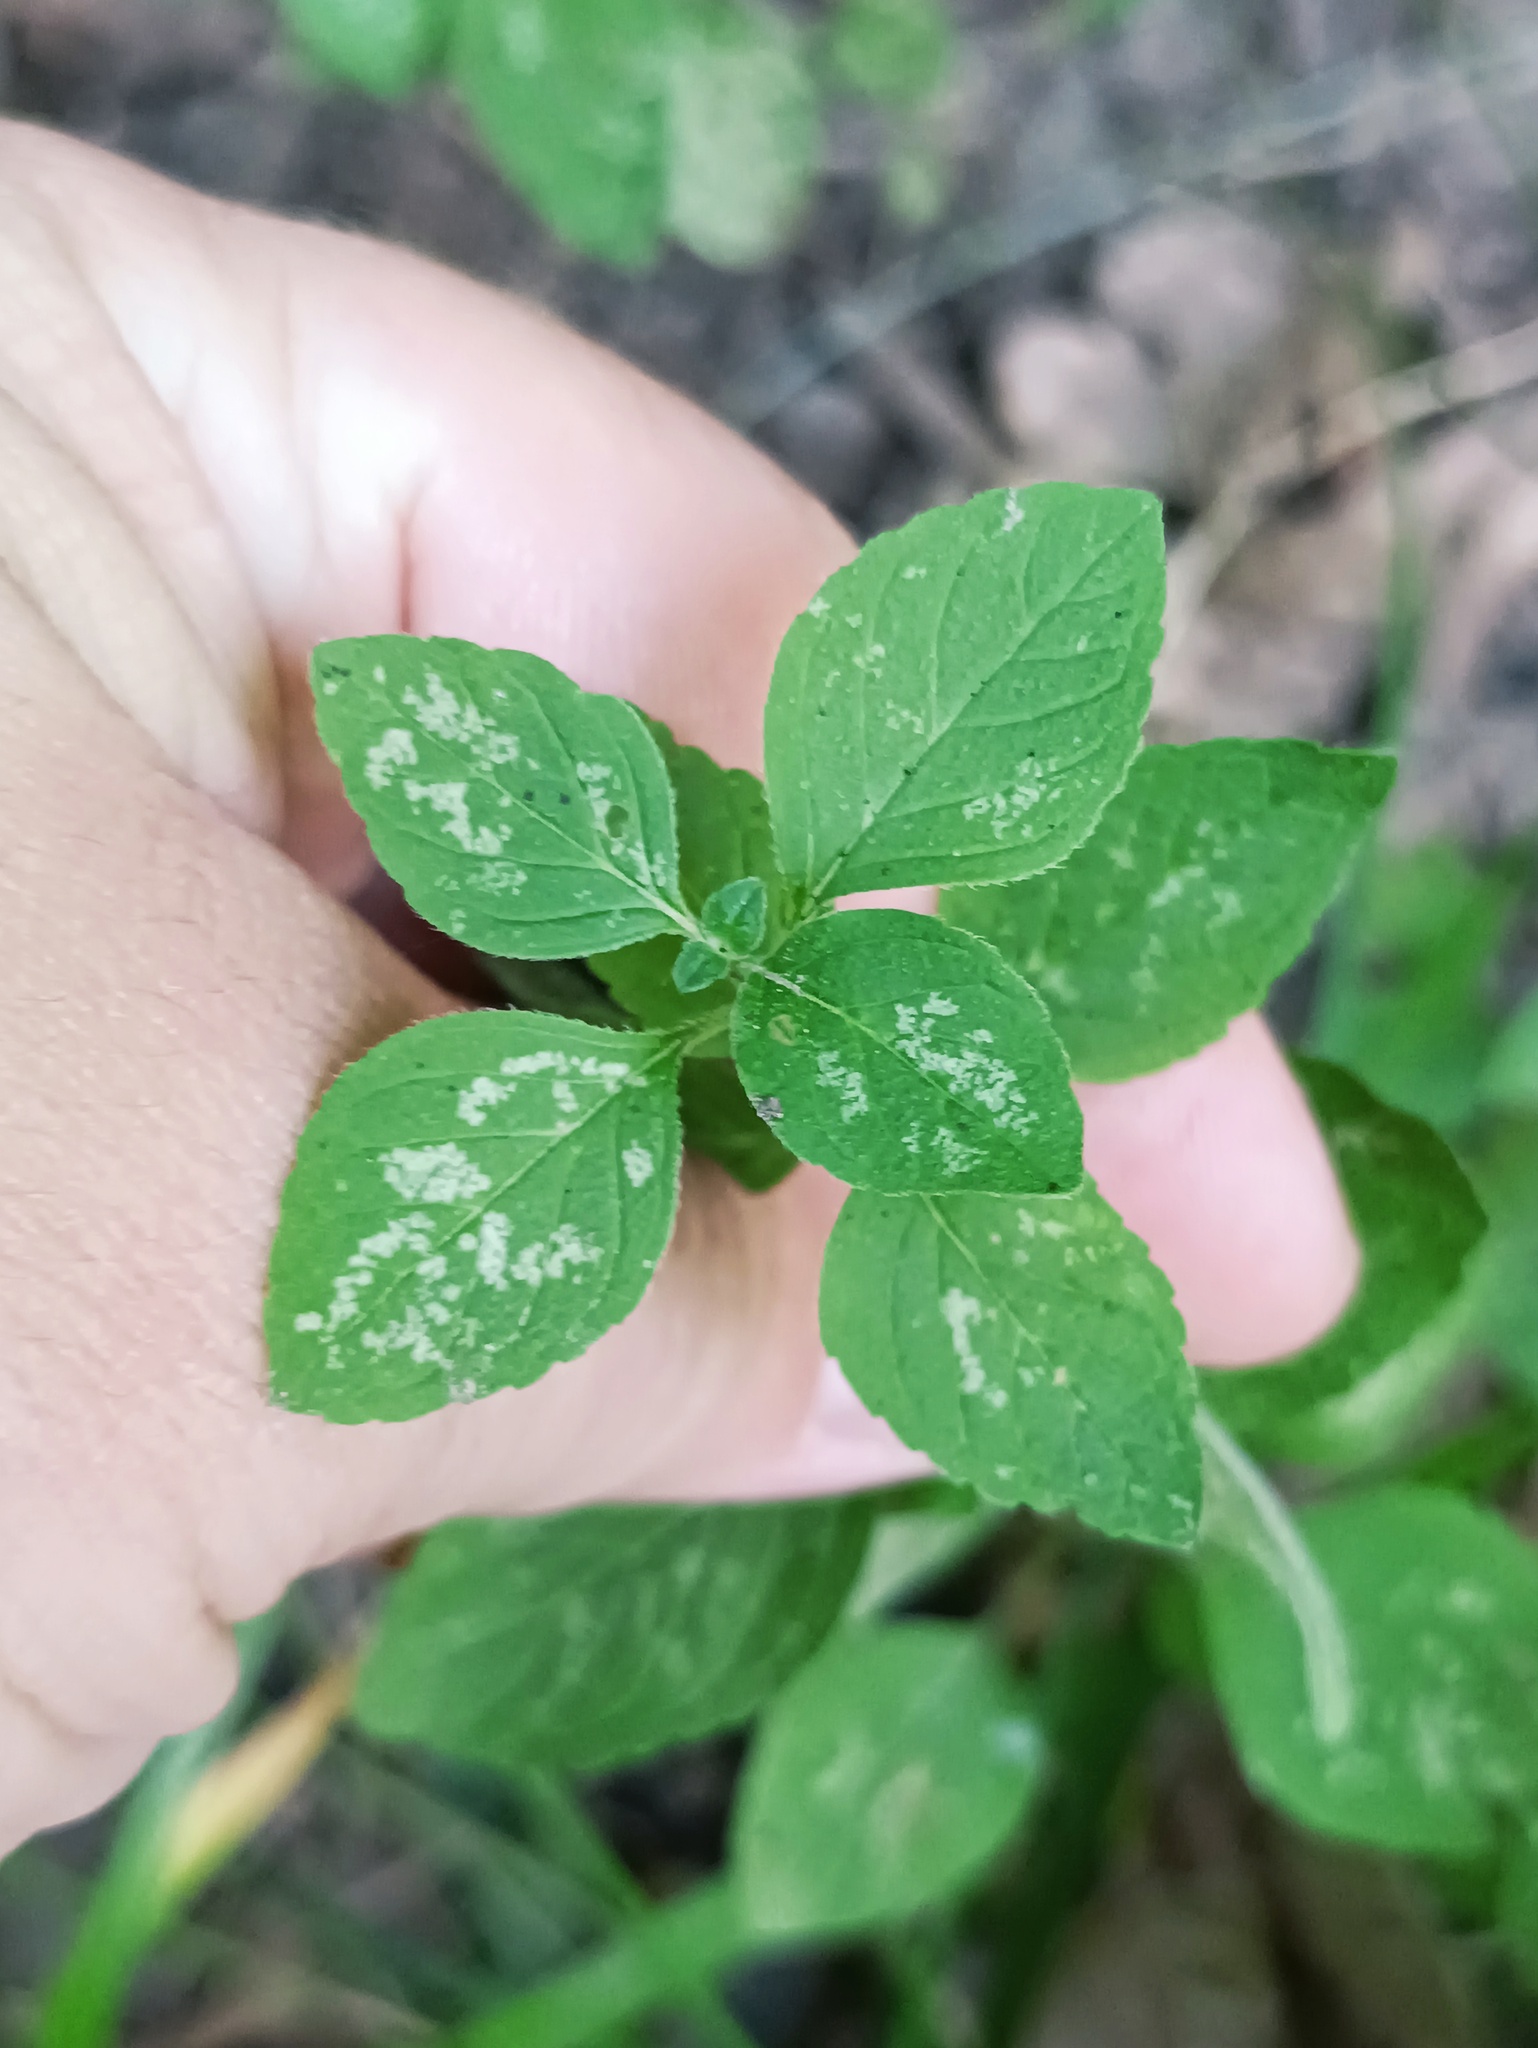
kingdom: Plantae
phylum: Tracheophyta
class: Magnoliopsida
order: Lamiales
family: Lamiaceae
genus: Mentha
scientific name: Mentha arvensis
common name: Corn mint
